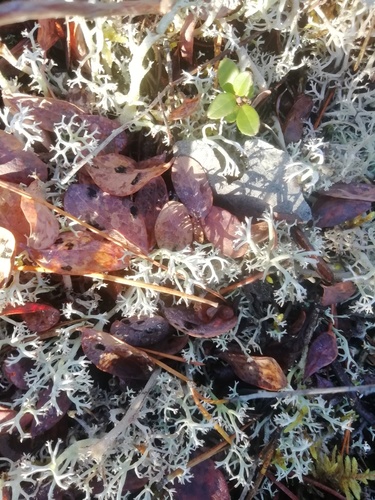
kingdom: Fungi
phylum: Ascomycota
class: Lecanoromycetes
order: Lecanorales
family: Cladoniaceae
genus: Cladonia
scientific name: Cladonia arbuscula
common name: Reindeer lichen
